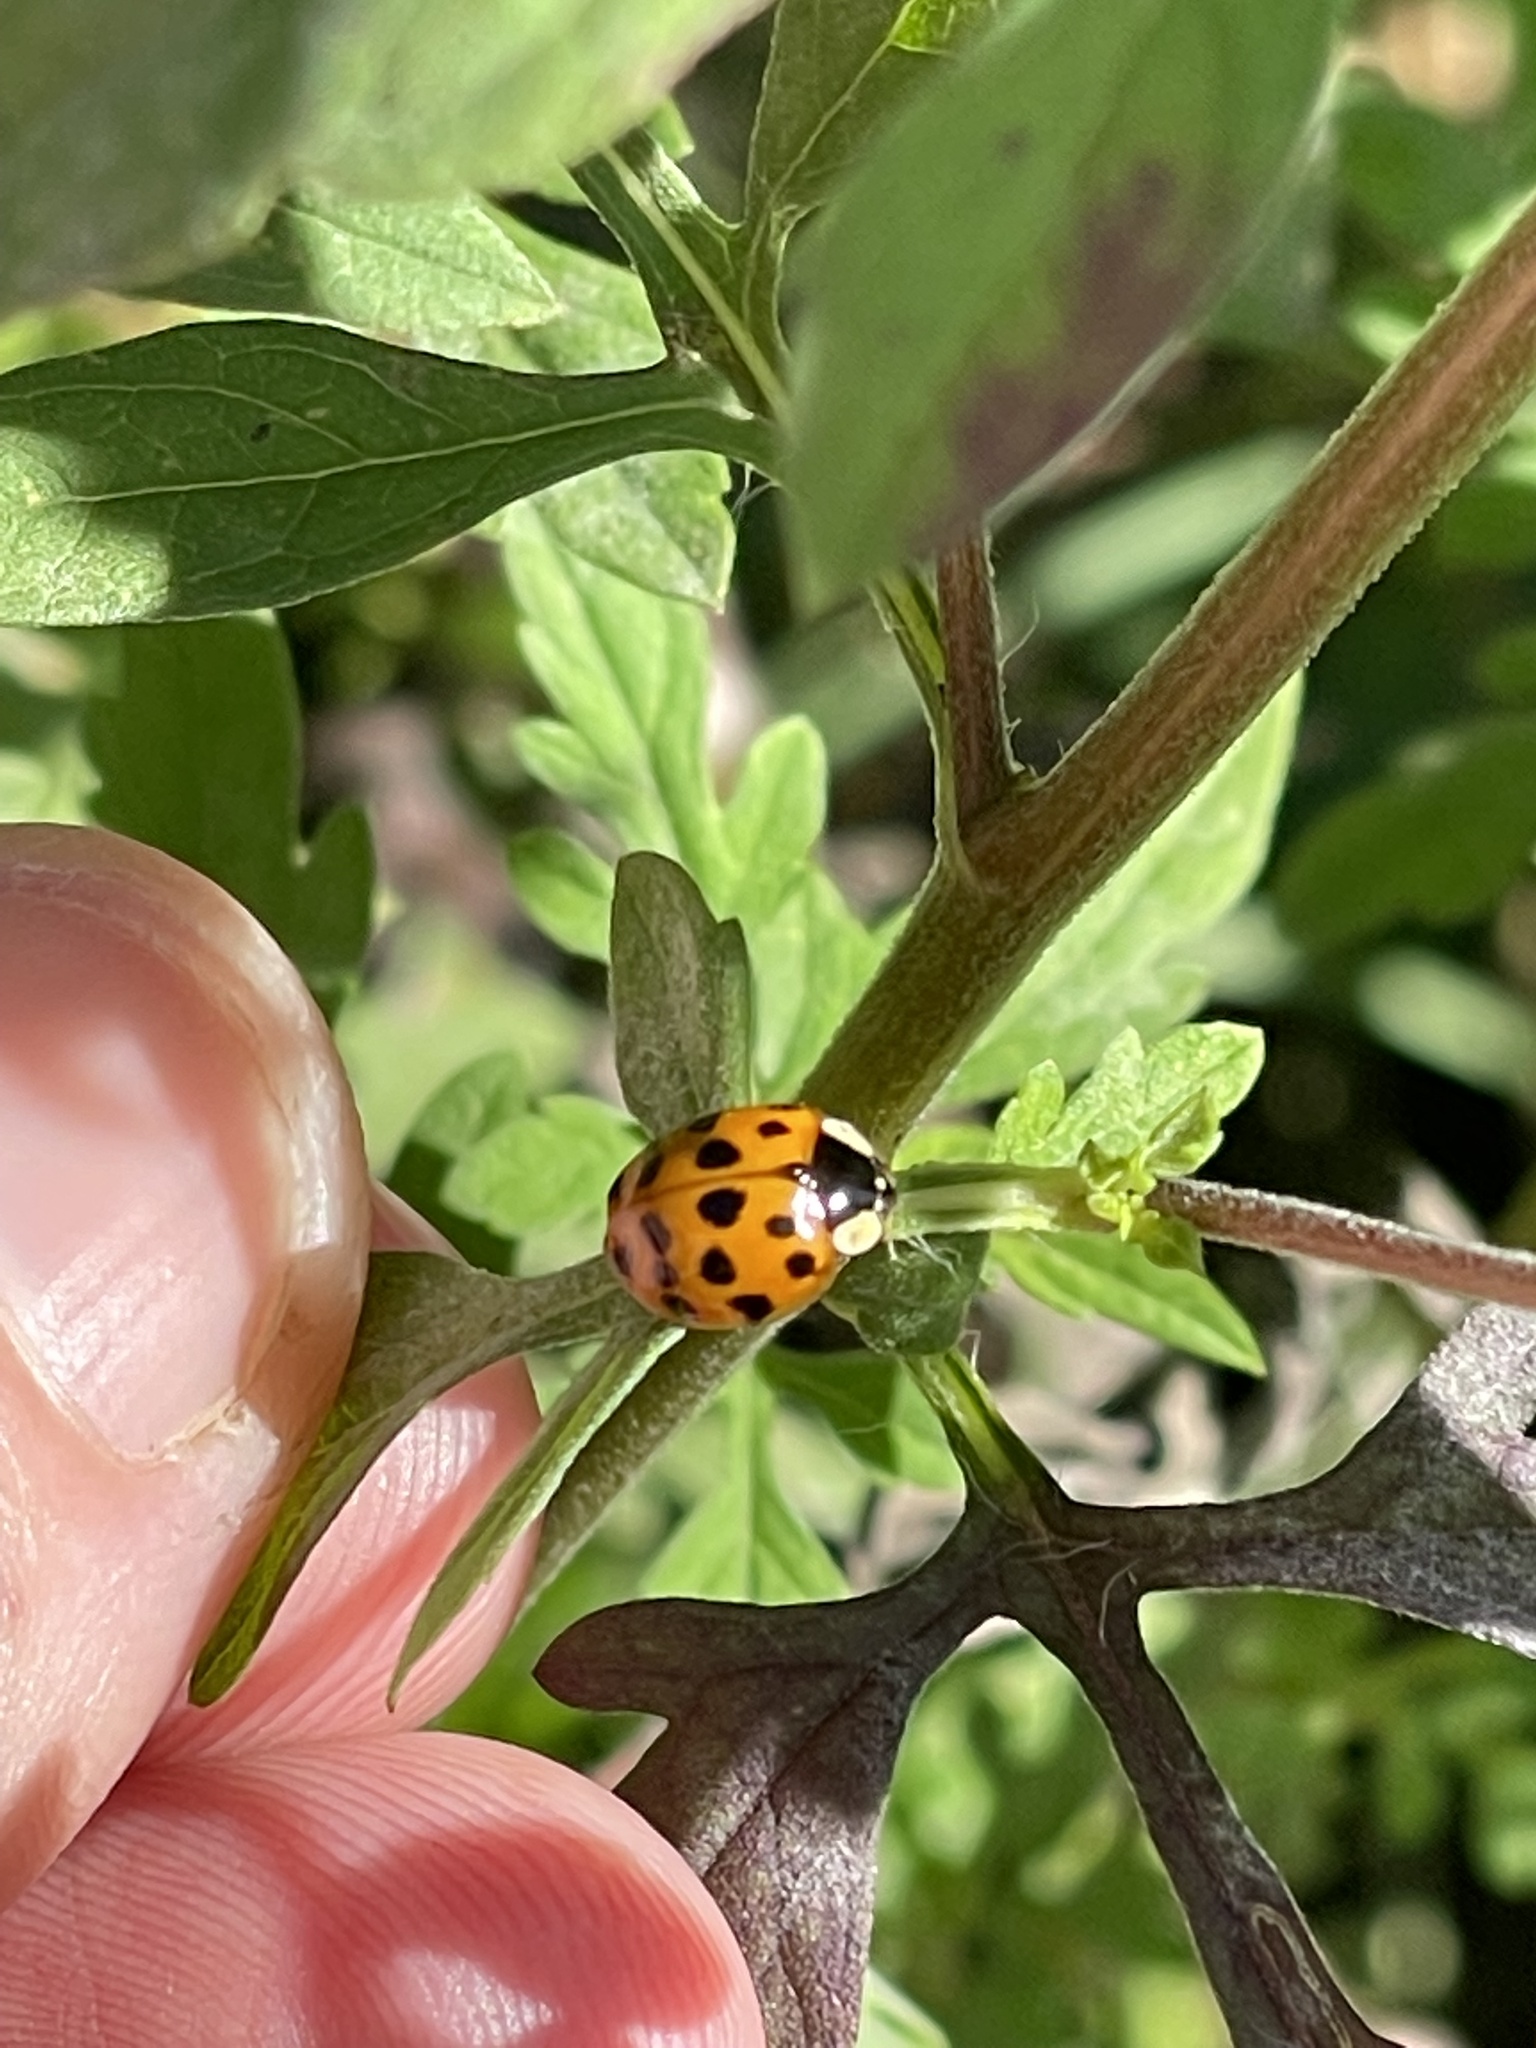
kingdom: Animalia
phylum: Arthropoda
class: Insecta
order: Coleoptera
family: Coccinellidae
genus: Harmonia
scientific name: Harmonia axyridis
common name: Harlequin ladybird
